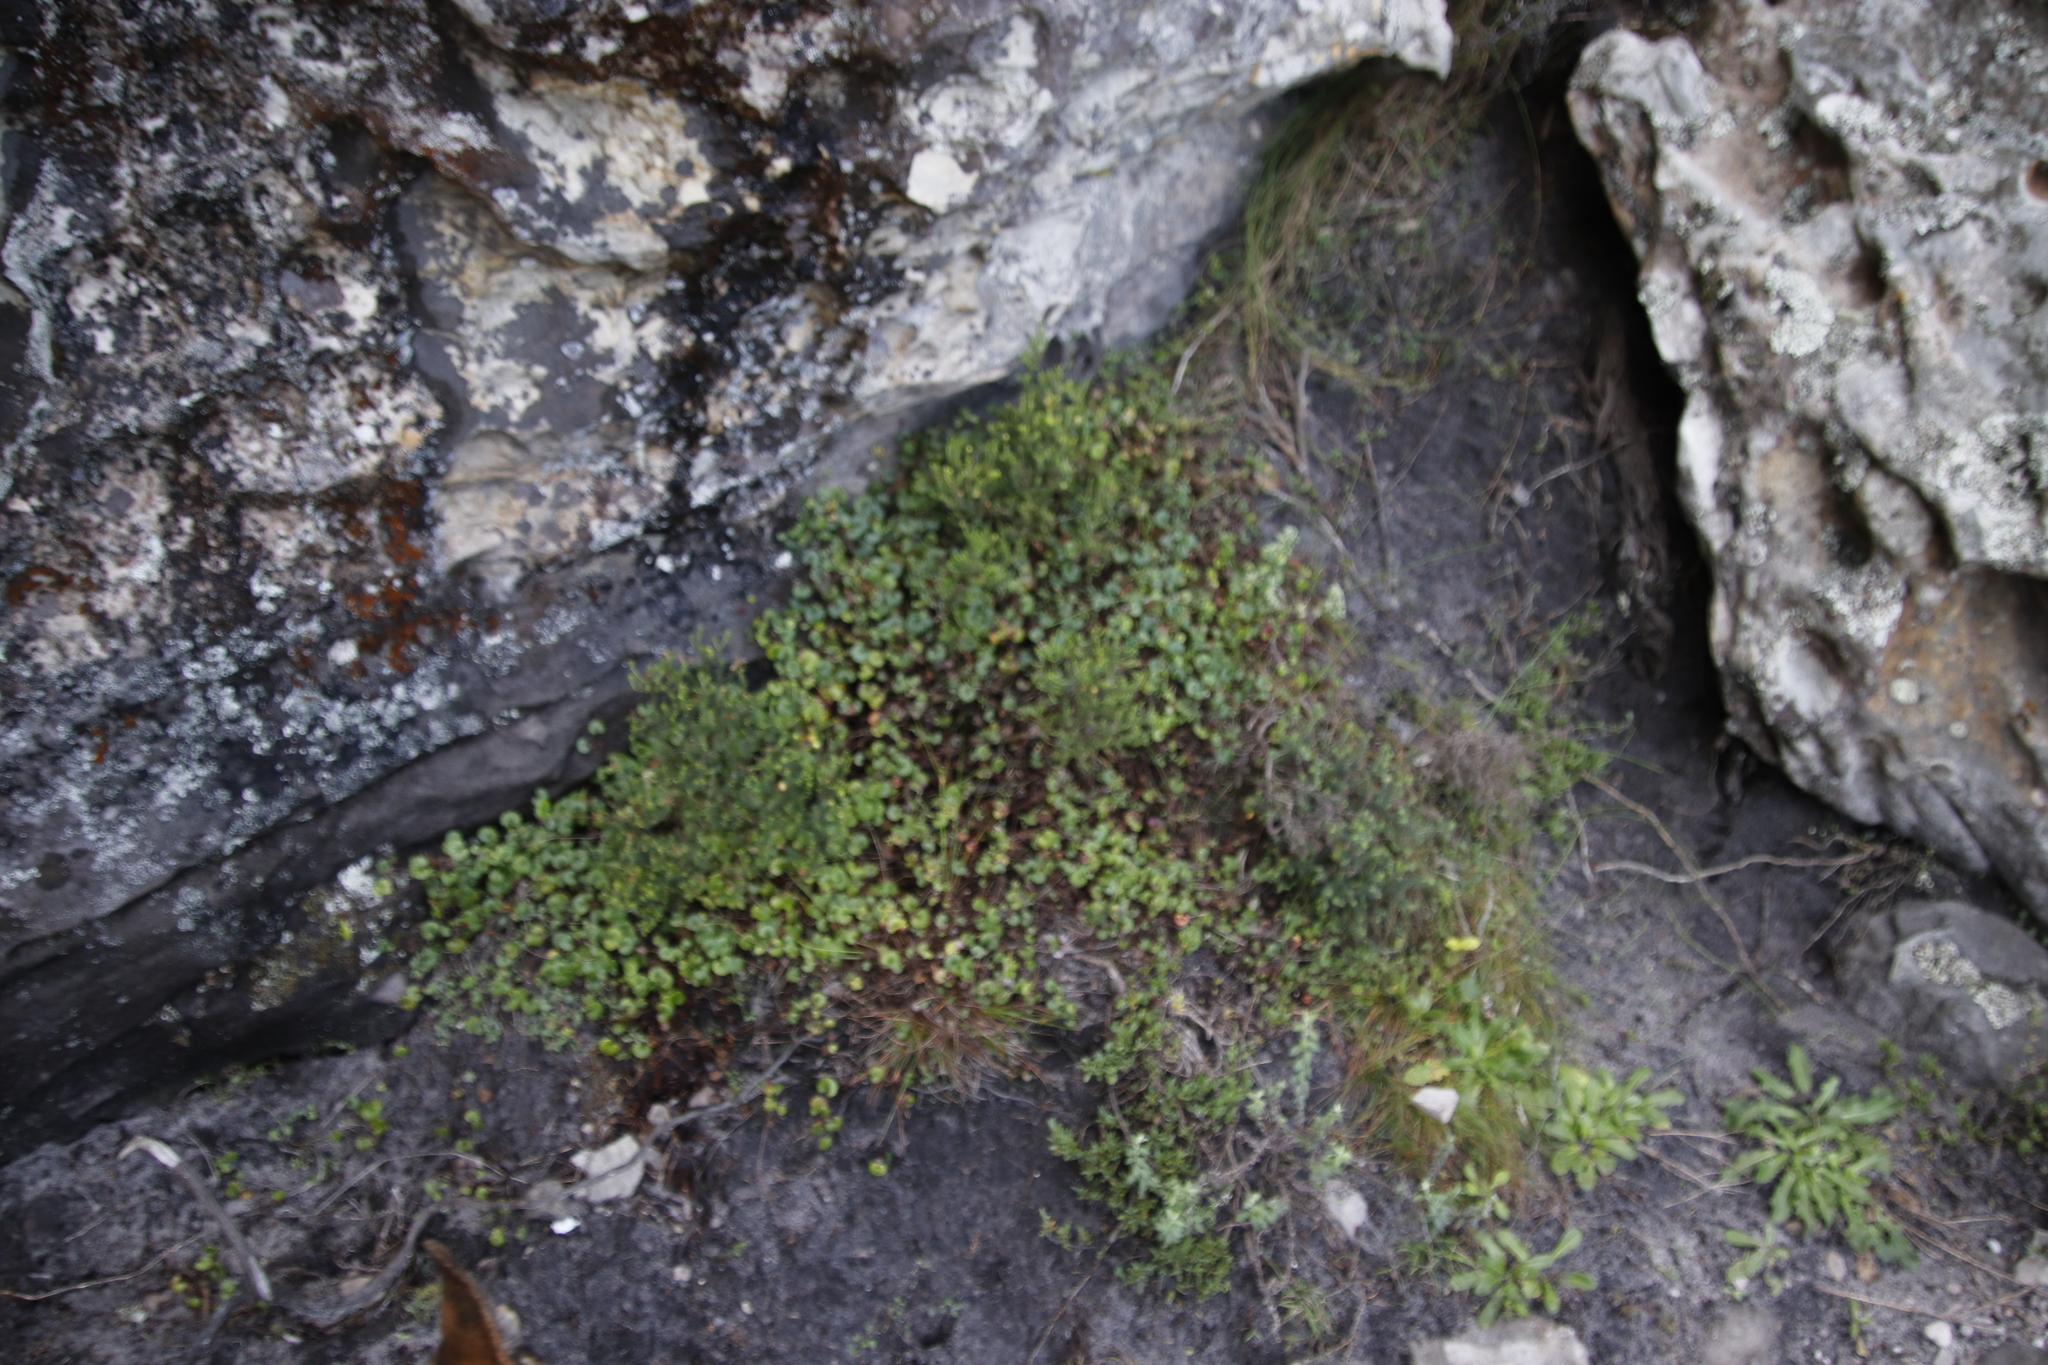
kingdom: Plantae
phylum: Tracheophyta
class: Magnoliopsida
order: Apiales
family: Apiaceae
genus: Centella
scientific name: Centella eriantha
